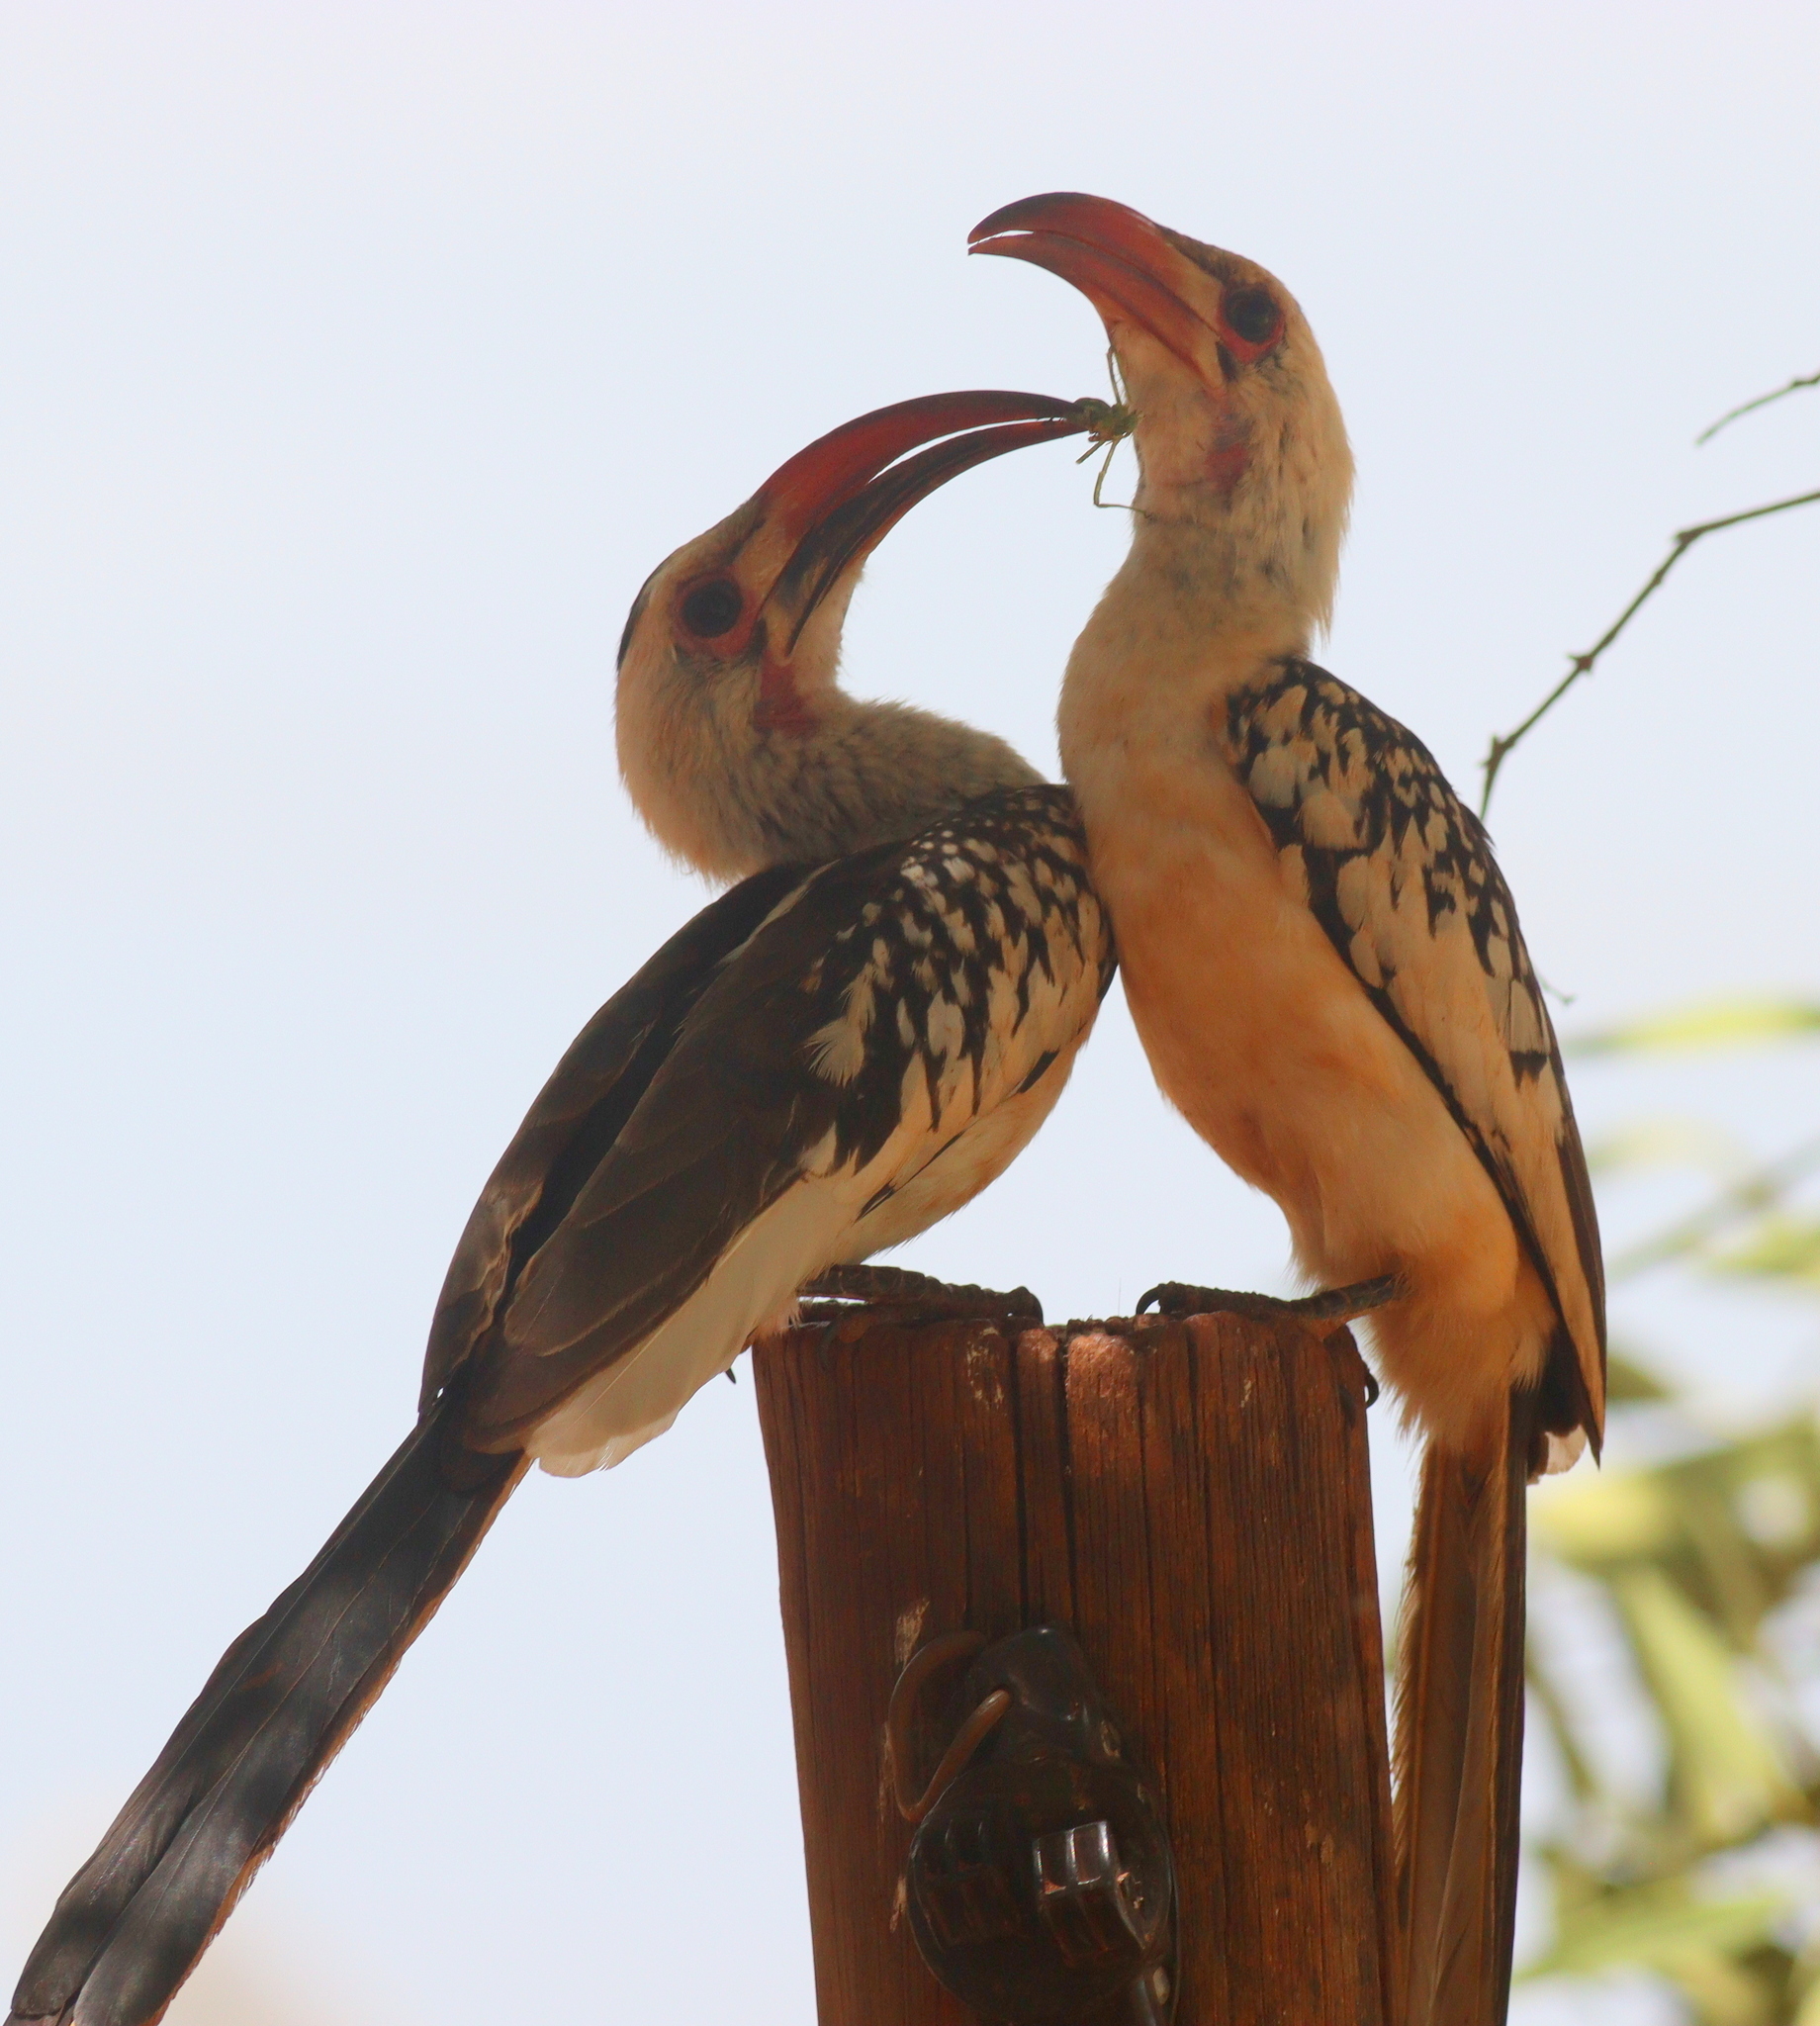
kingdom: Animalia
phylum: Chordata
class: Aves
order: Bucerotiformes
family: Bucerotidae
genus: Tockus
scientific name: Tockus erythrorhynchus
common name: Northern red-billed hornbill
